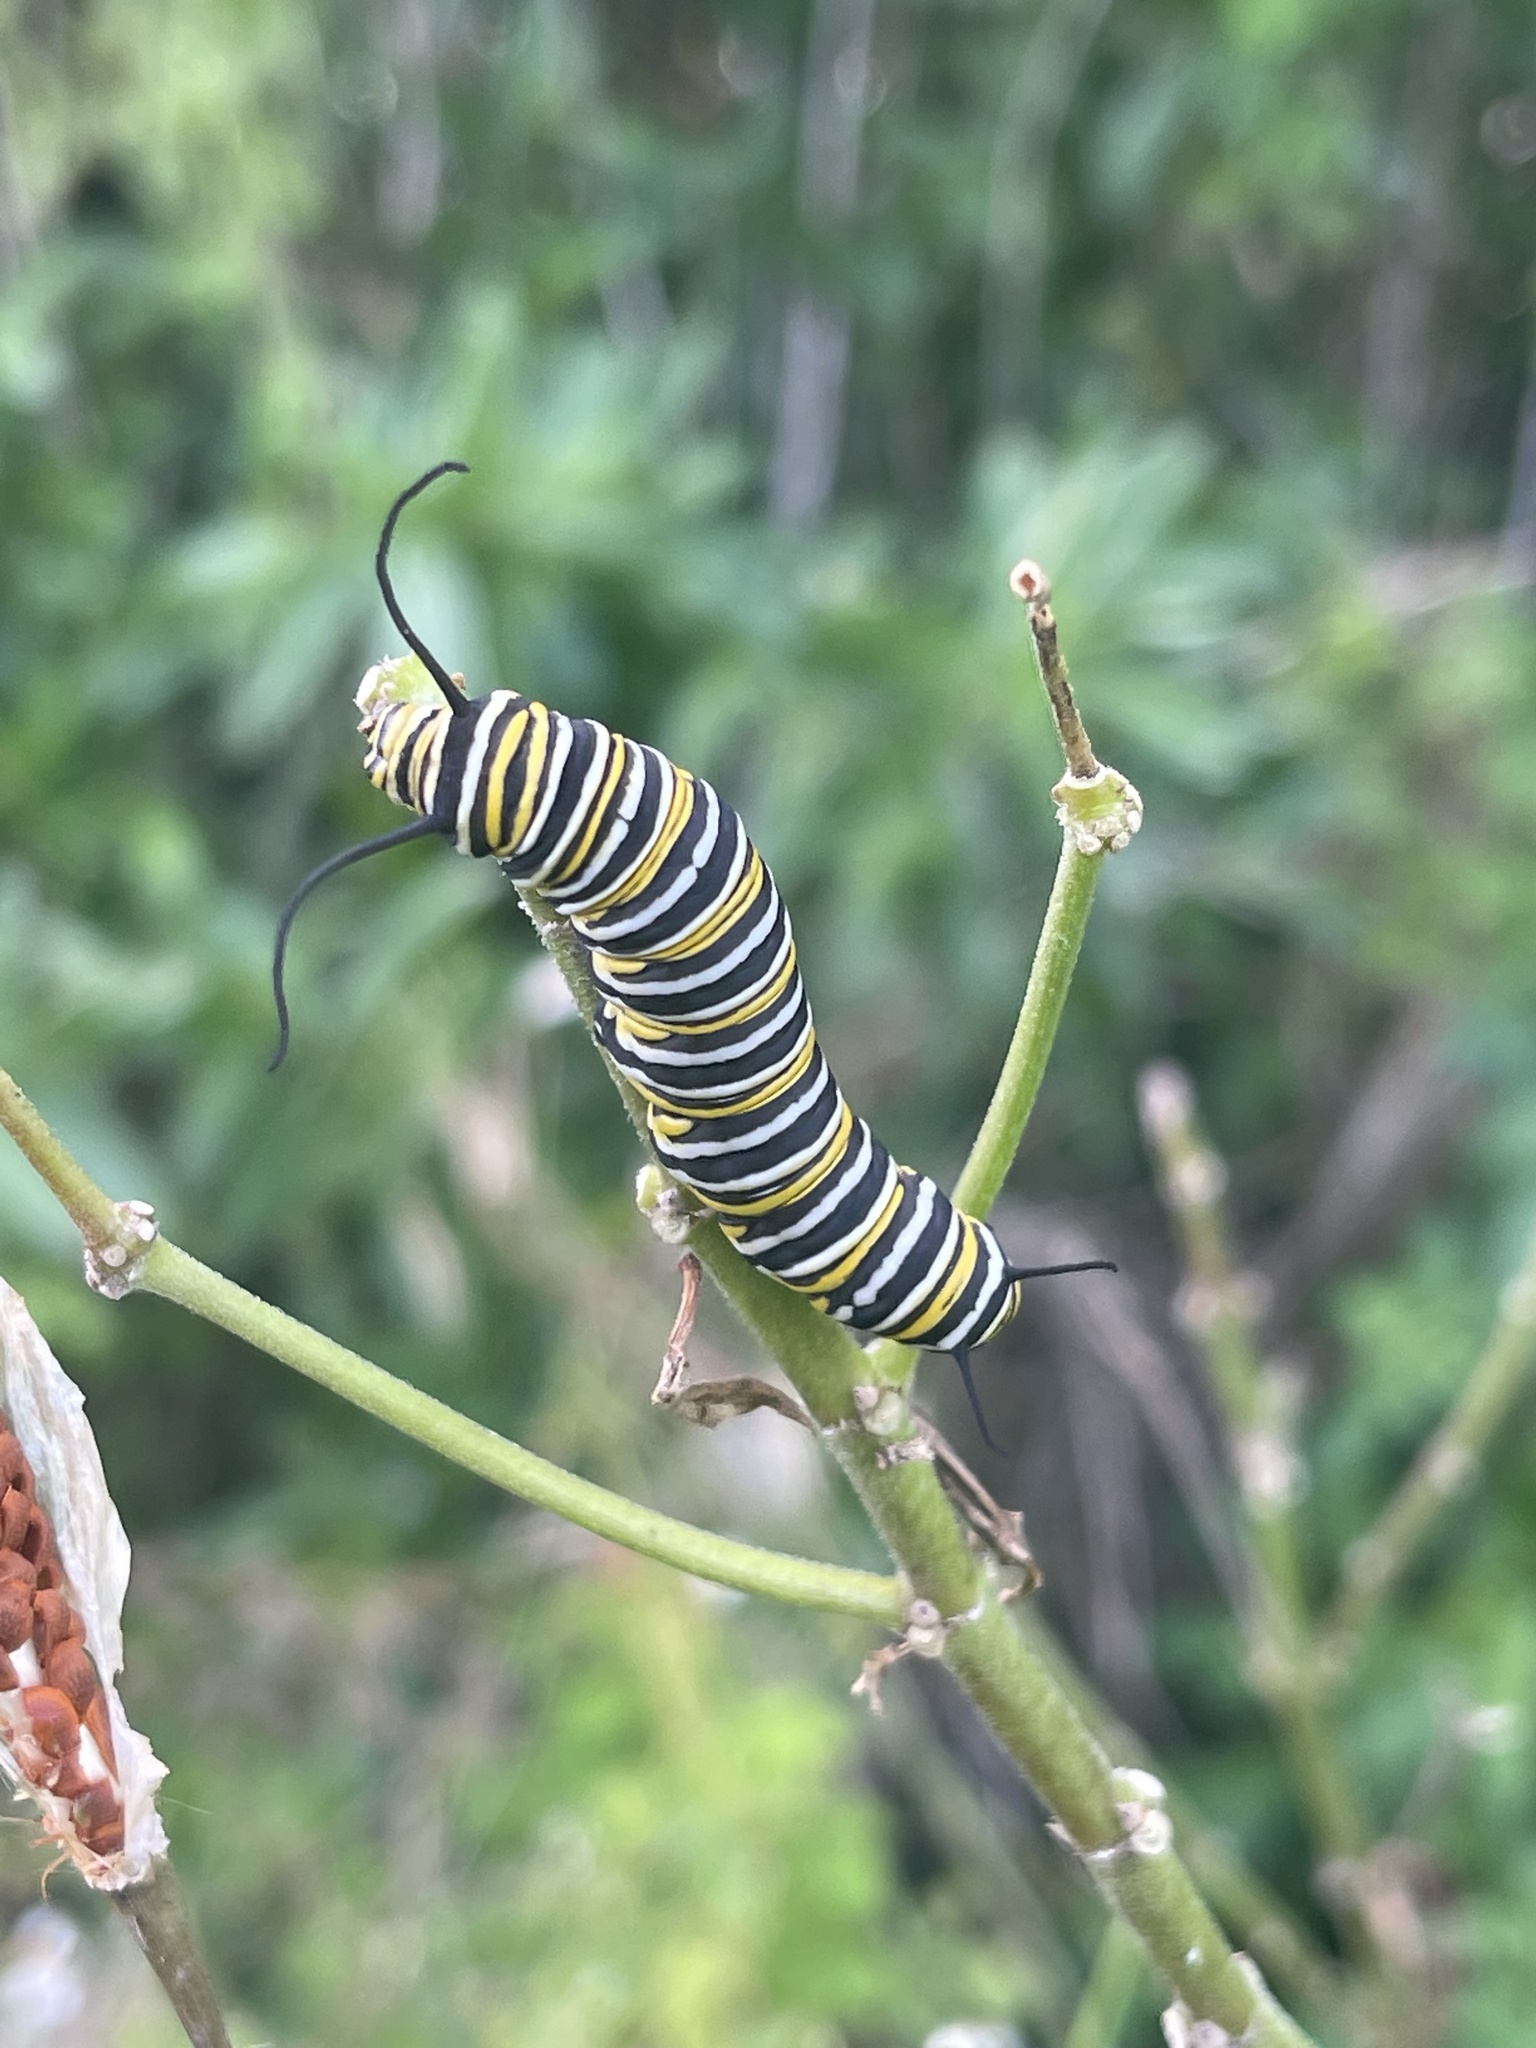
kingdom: Animalia
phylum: Arthropoda
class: Insecta
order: Lepidoptera
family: Nymphalidae
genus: Danaus
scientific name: Danaus plexippus
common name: Monarch
